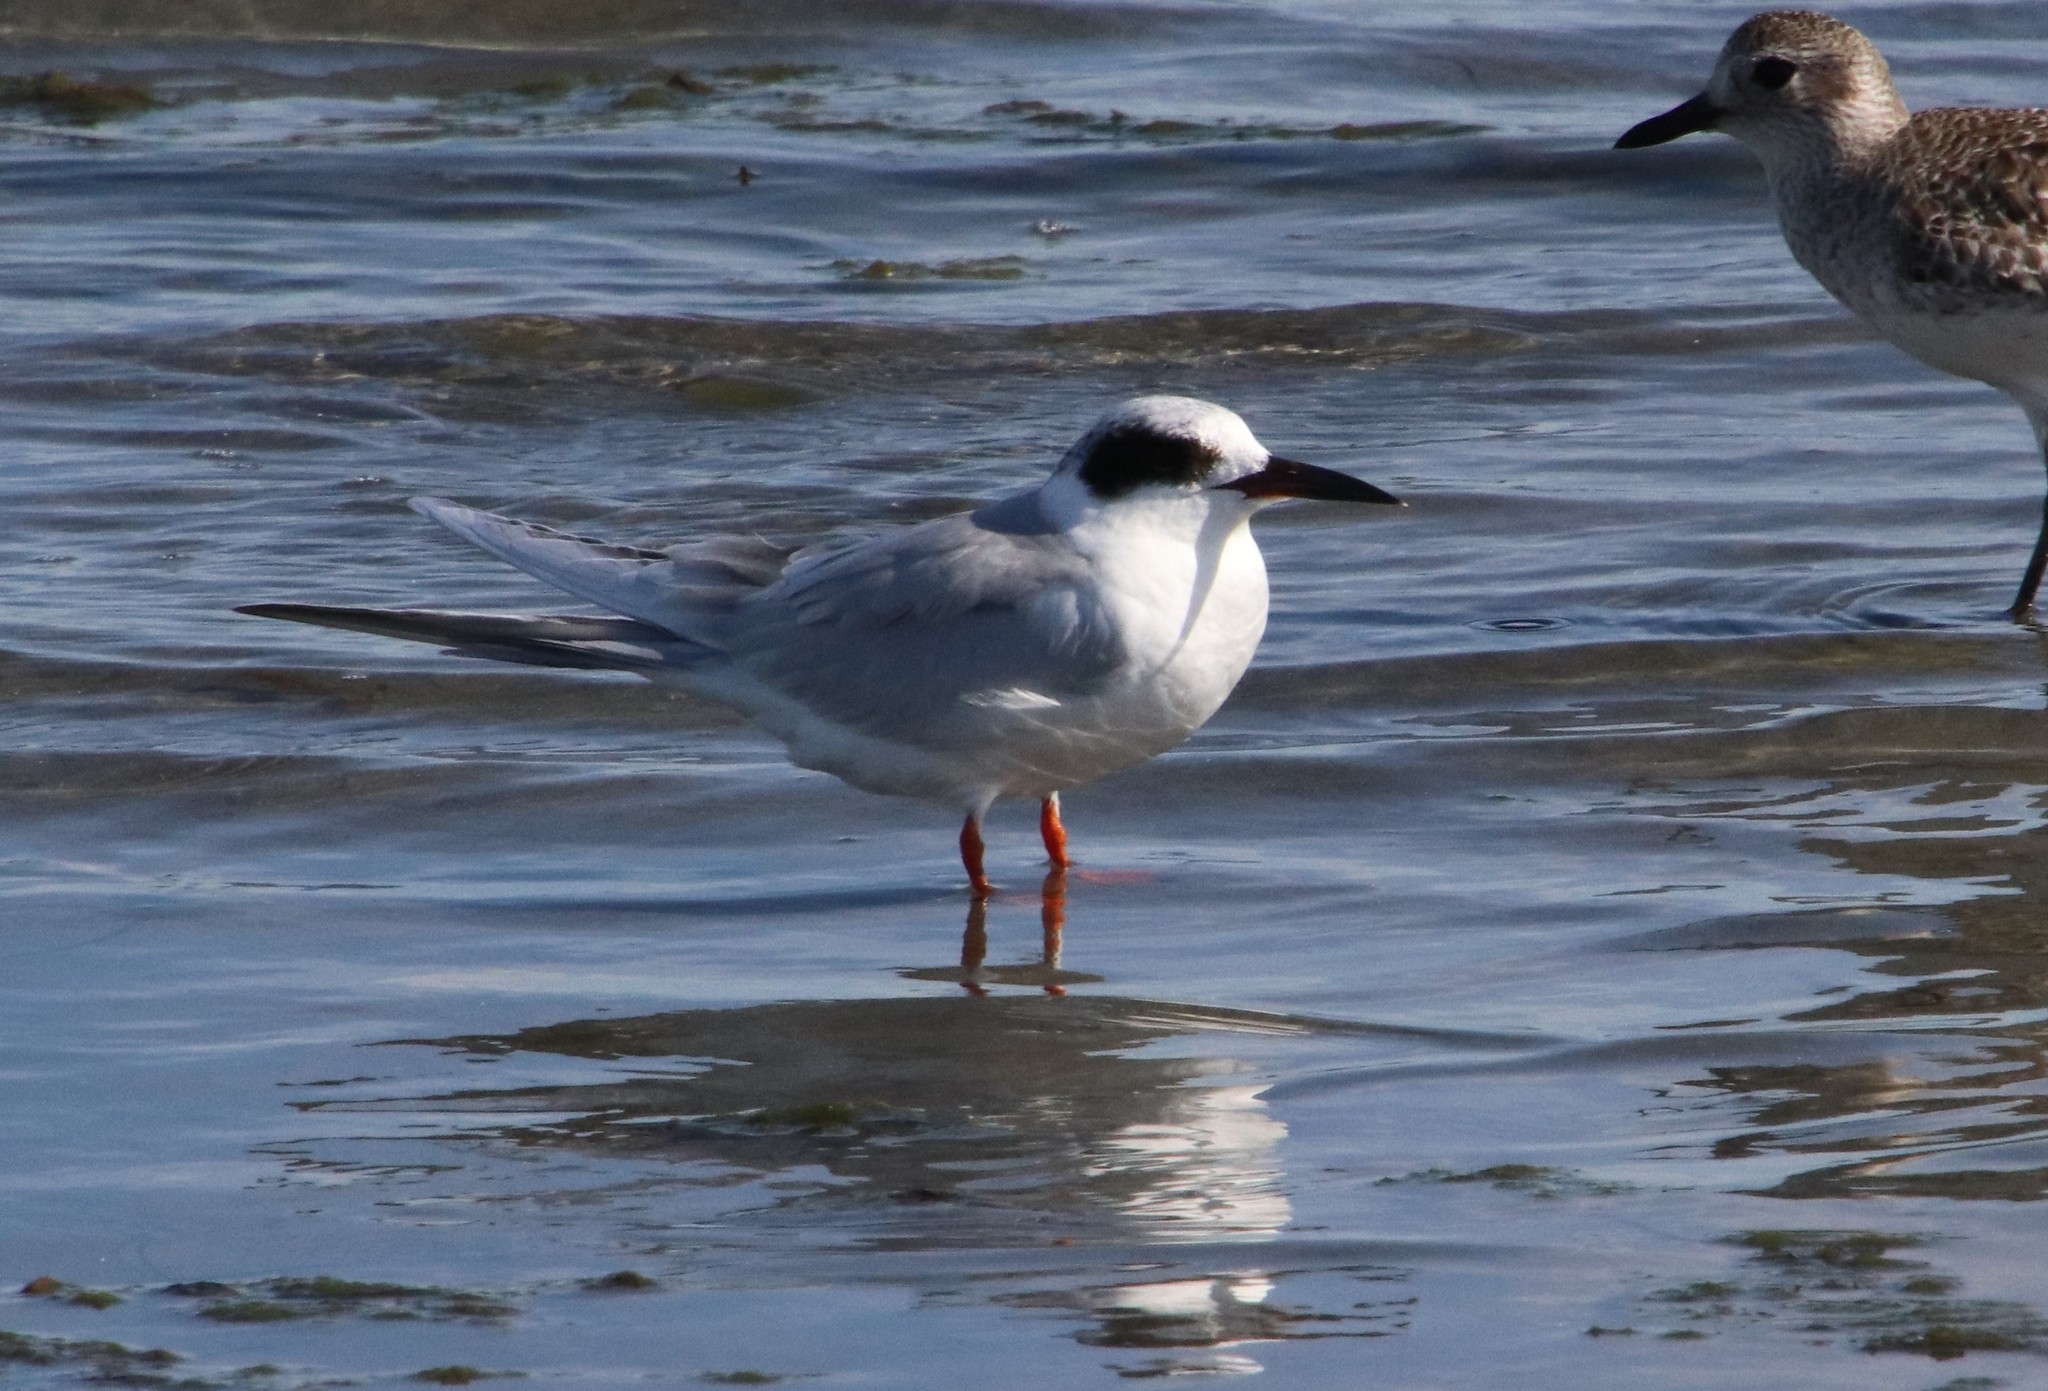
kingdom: Animalia
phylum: Chordata
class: Aves
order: Charadriiformes
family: Laridae
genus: Sterna
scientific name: Sterna forsteri
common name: Forster's tern
